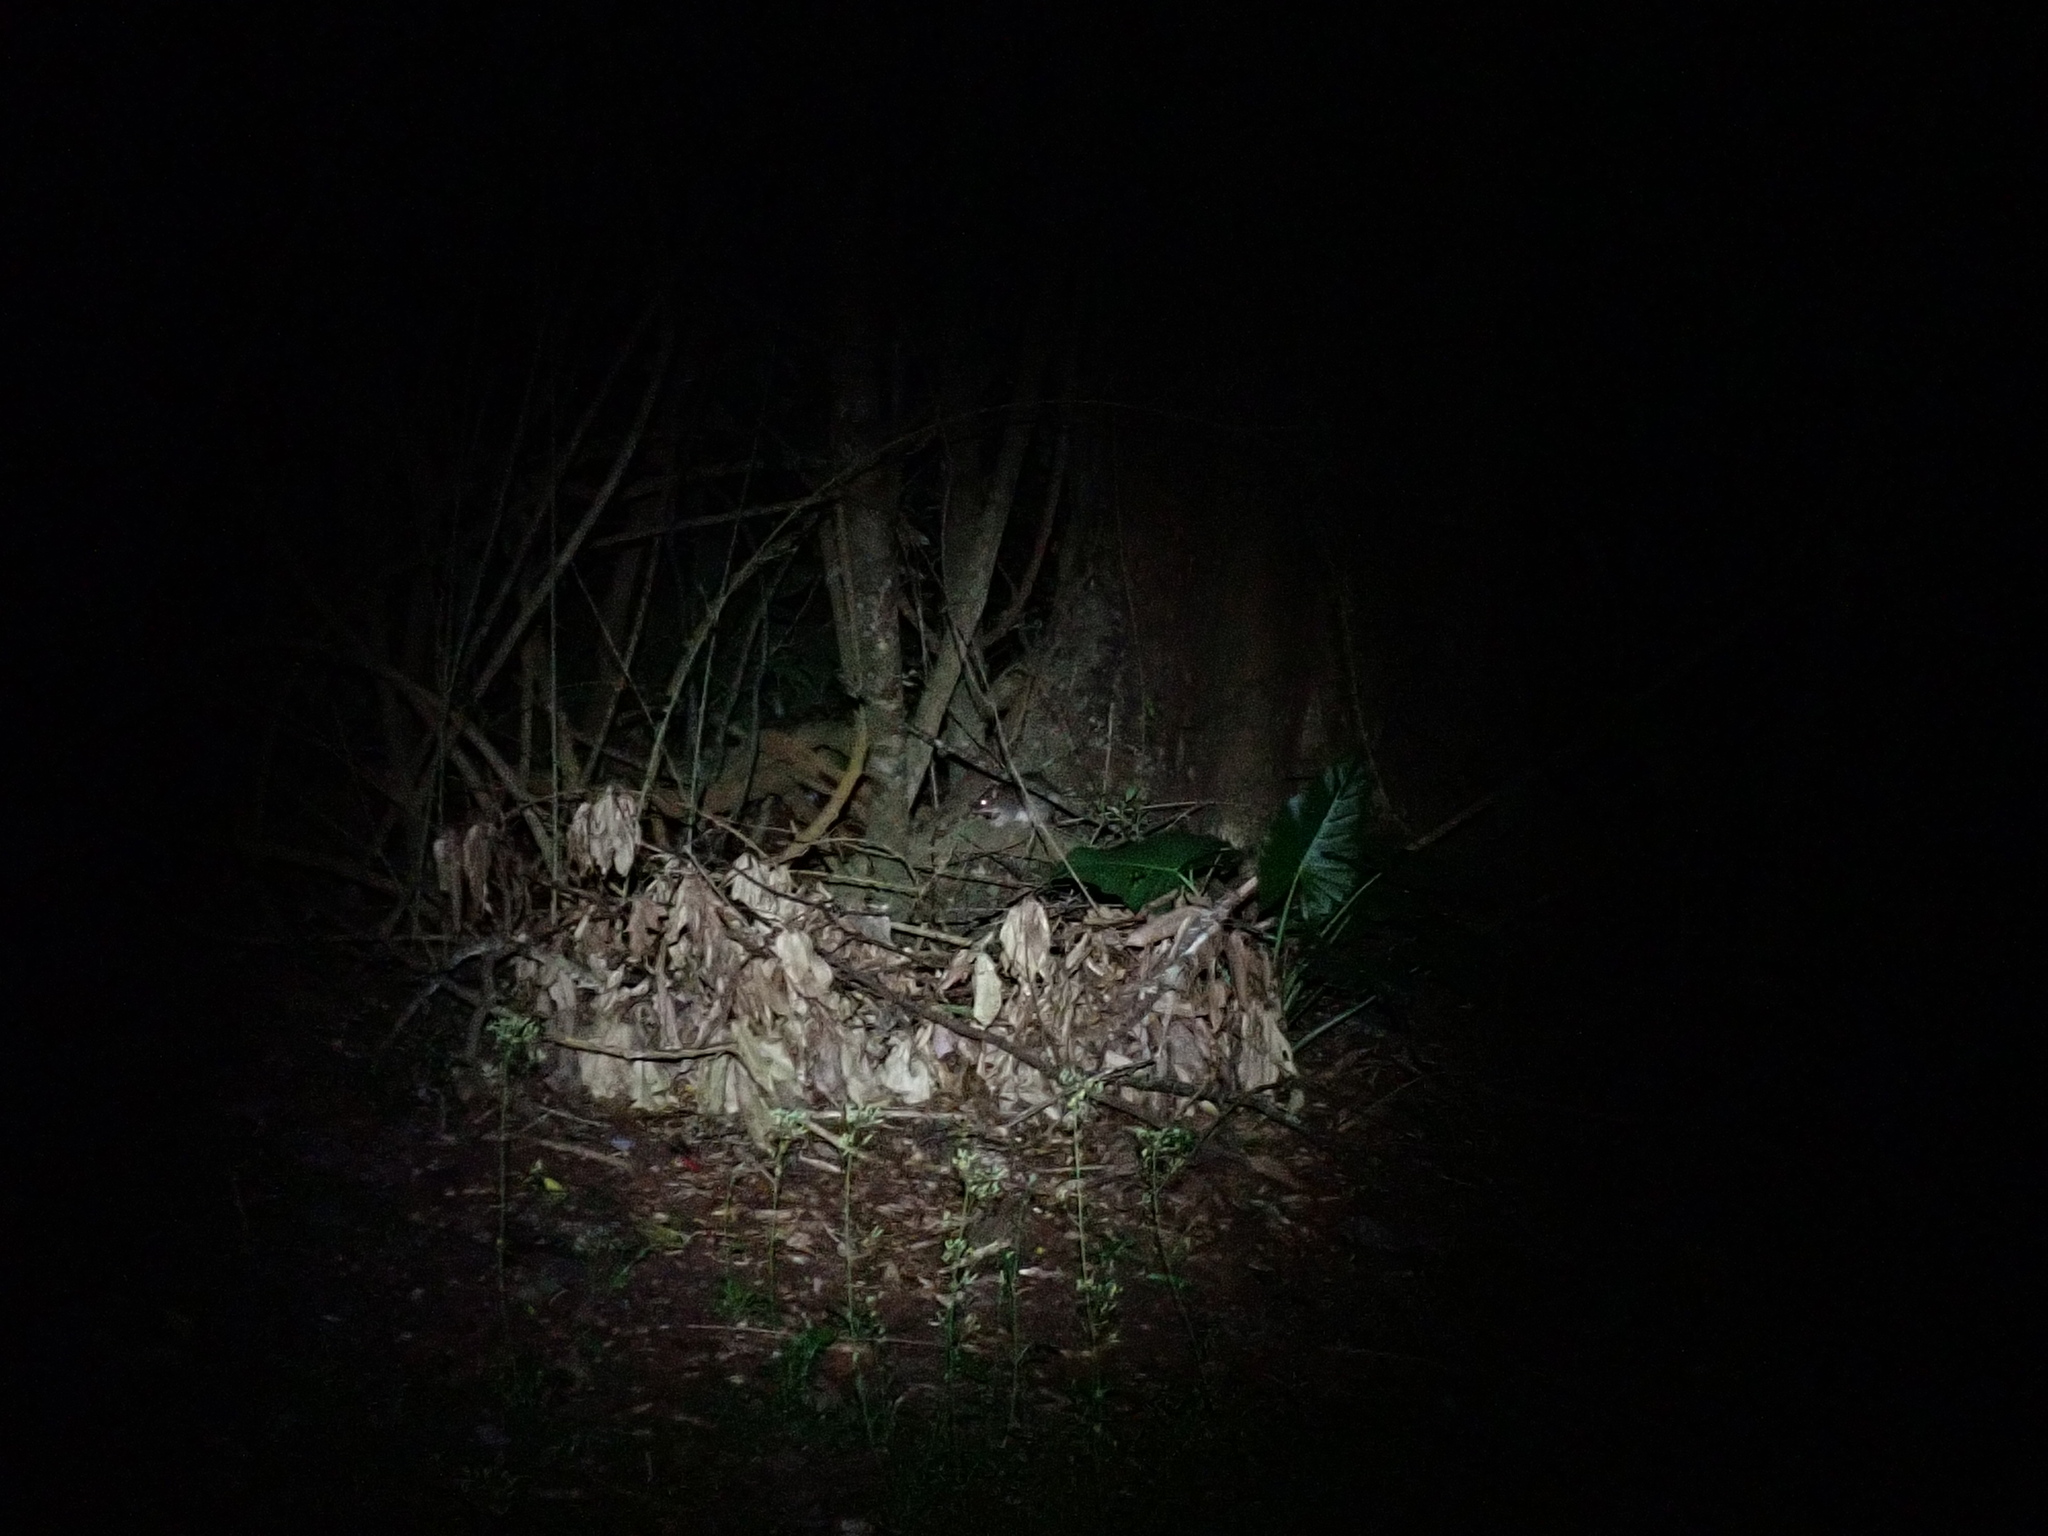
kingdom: Animalia
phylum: Chordata
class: Mammalia
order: Rodentia
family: Muridae
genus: Uromys
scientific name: Uromys caudimaculatus
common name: Giant white-tailed uromys
